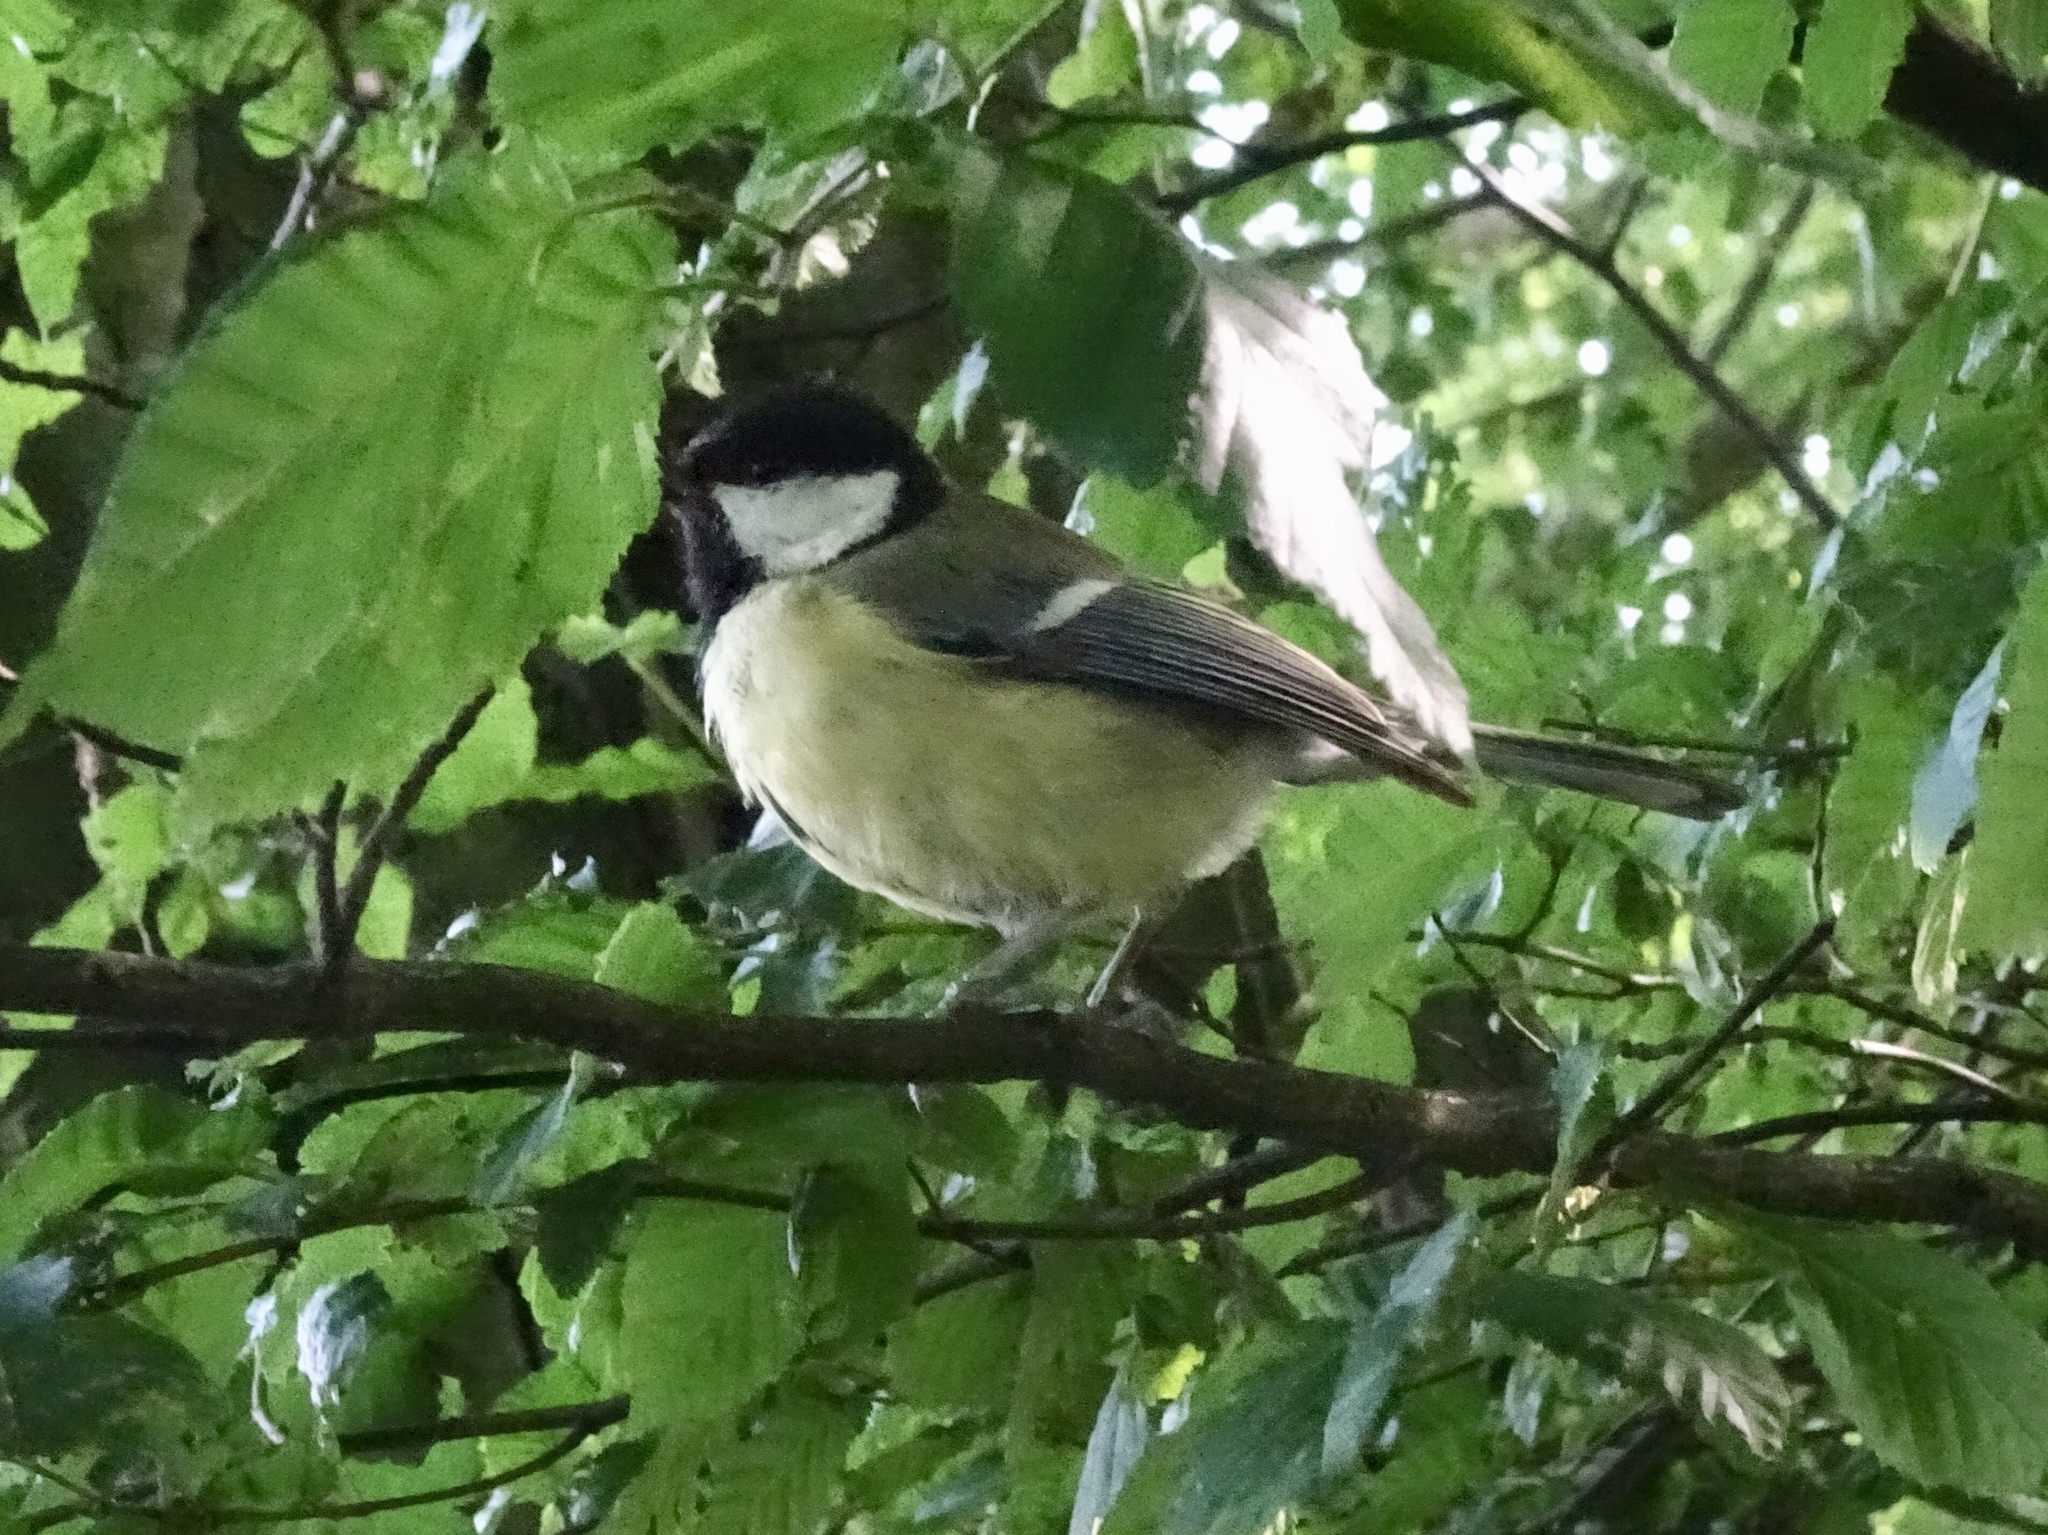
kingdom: Animalia
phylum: Chordata
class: Aves
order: Passeriformes
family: Paridae
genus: Parus
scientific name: Parus major
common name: Great tit
